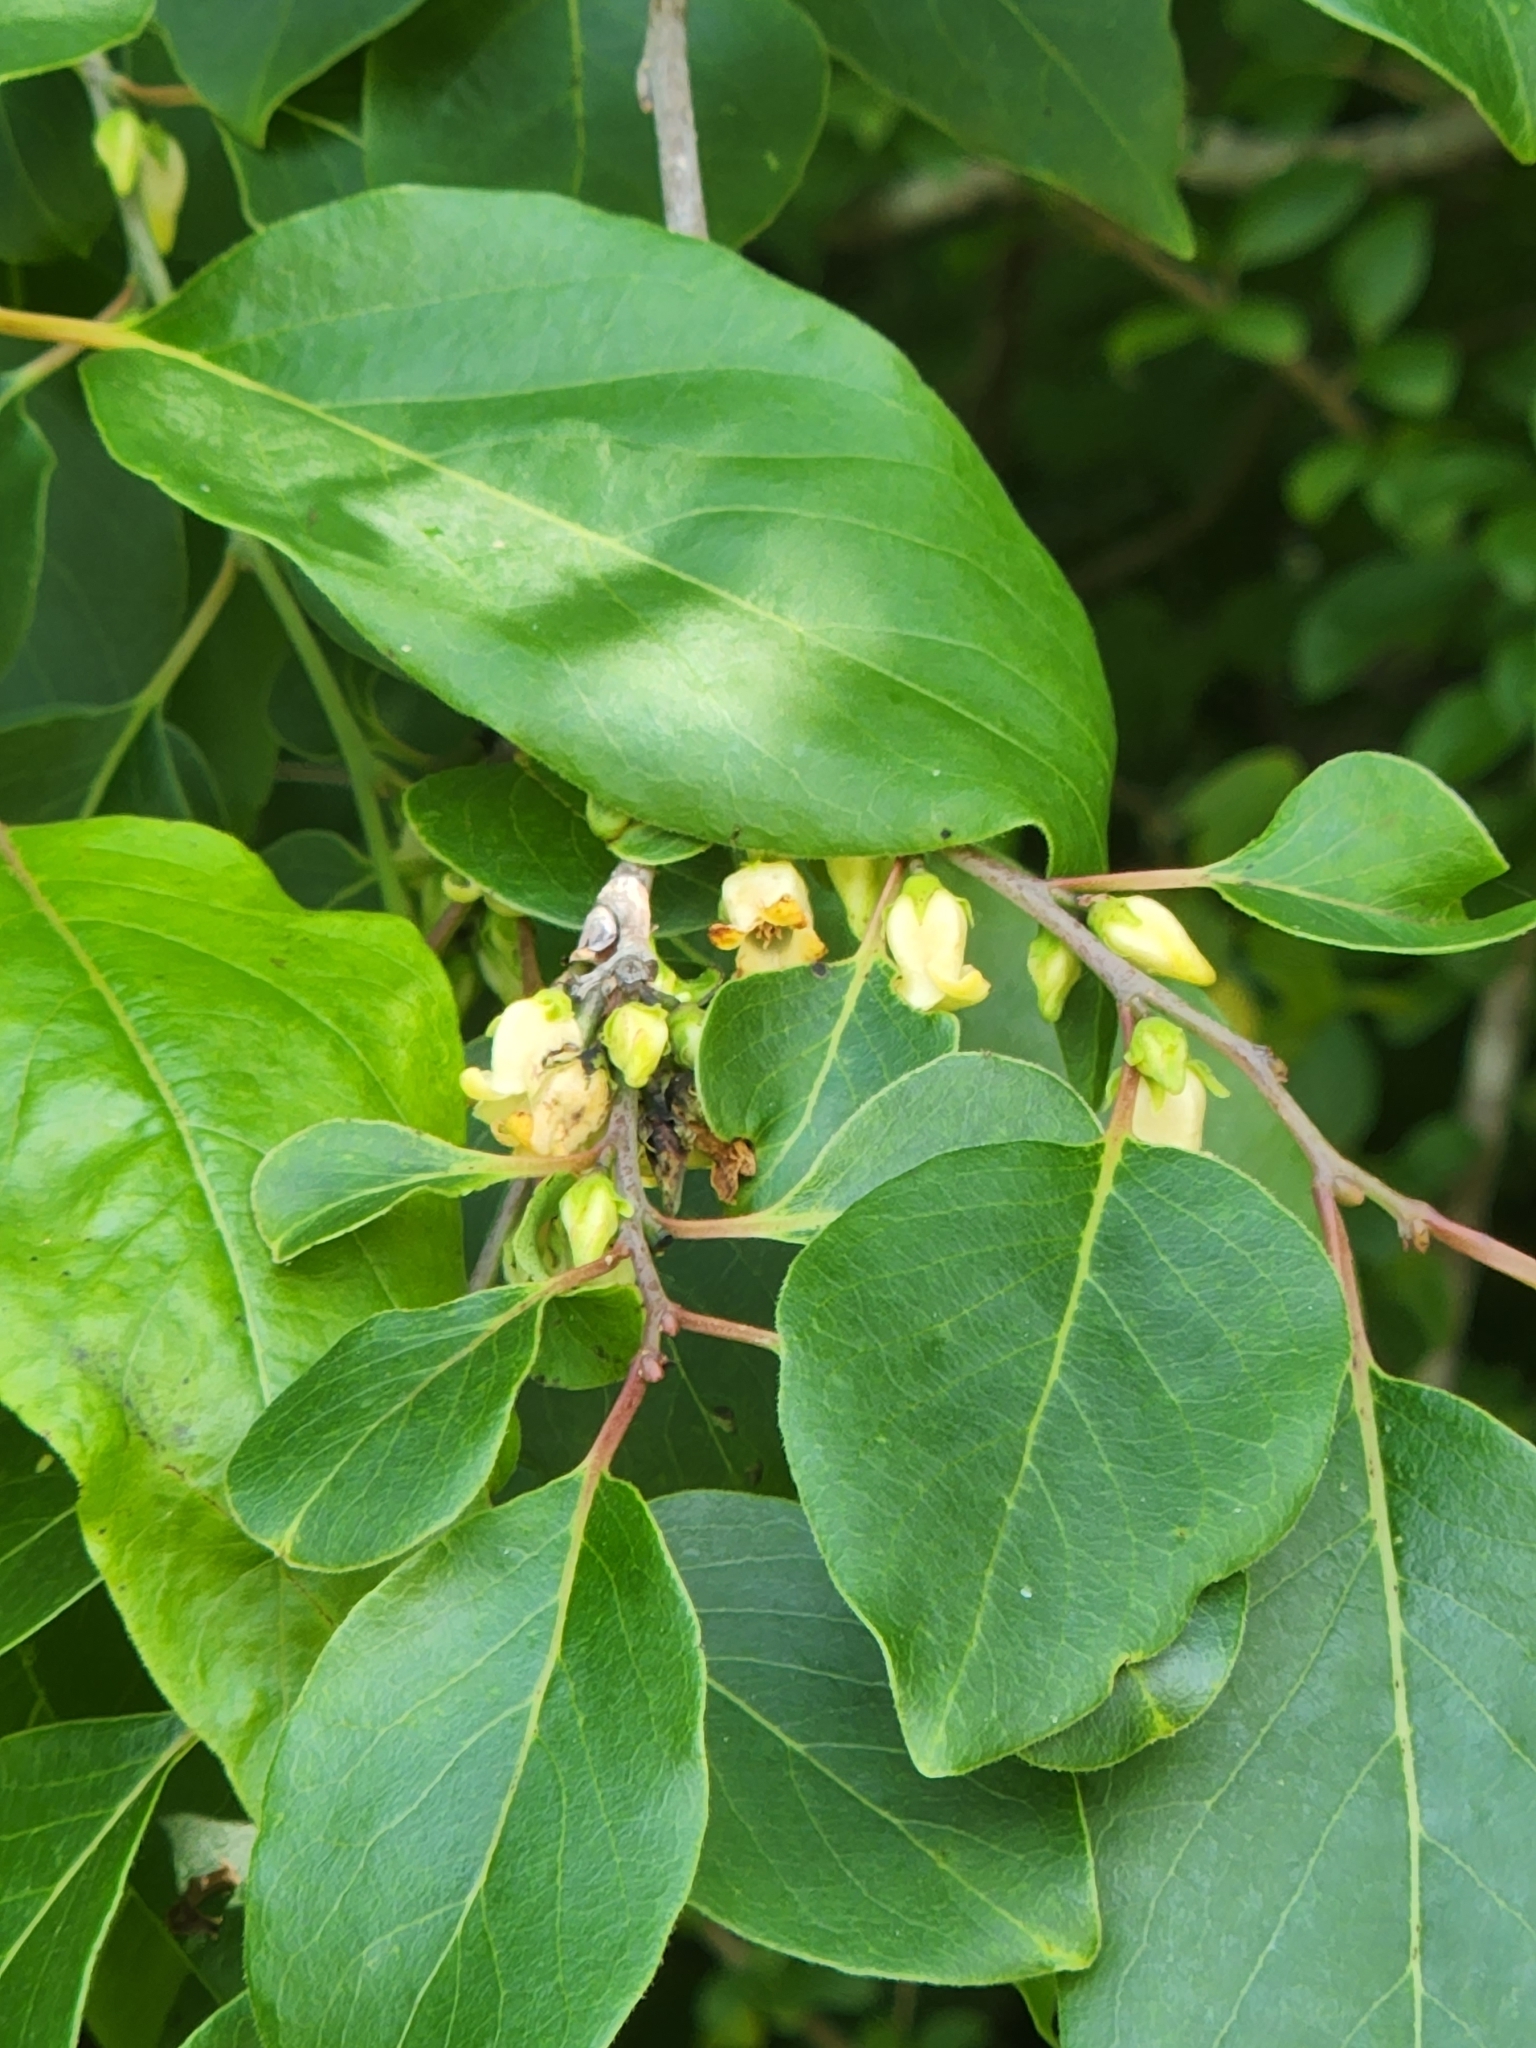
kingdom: Plantae
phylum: Tracheophyta
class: Magnoliopsida
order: Ericales
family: Ebenaceae
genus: Diospyros
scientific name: Diospyros virginiana
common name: Persimmon
